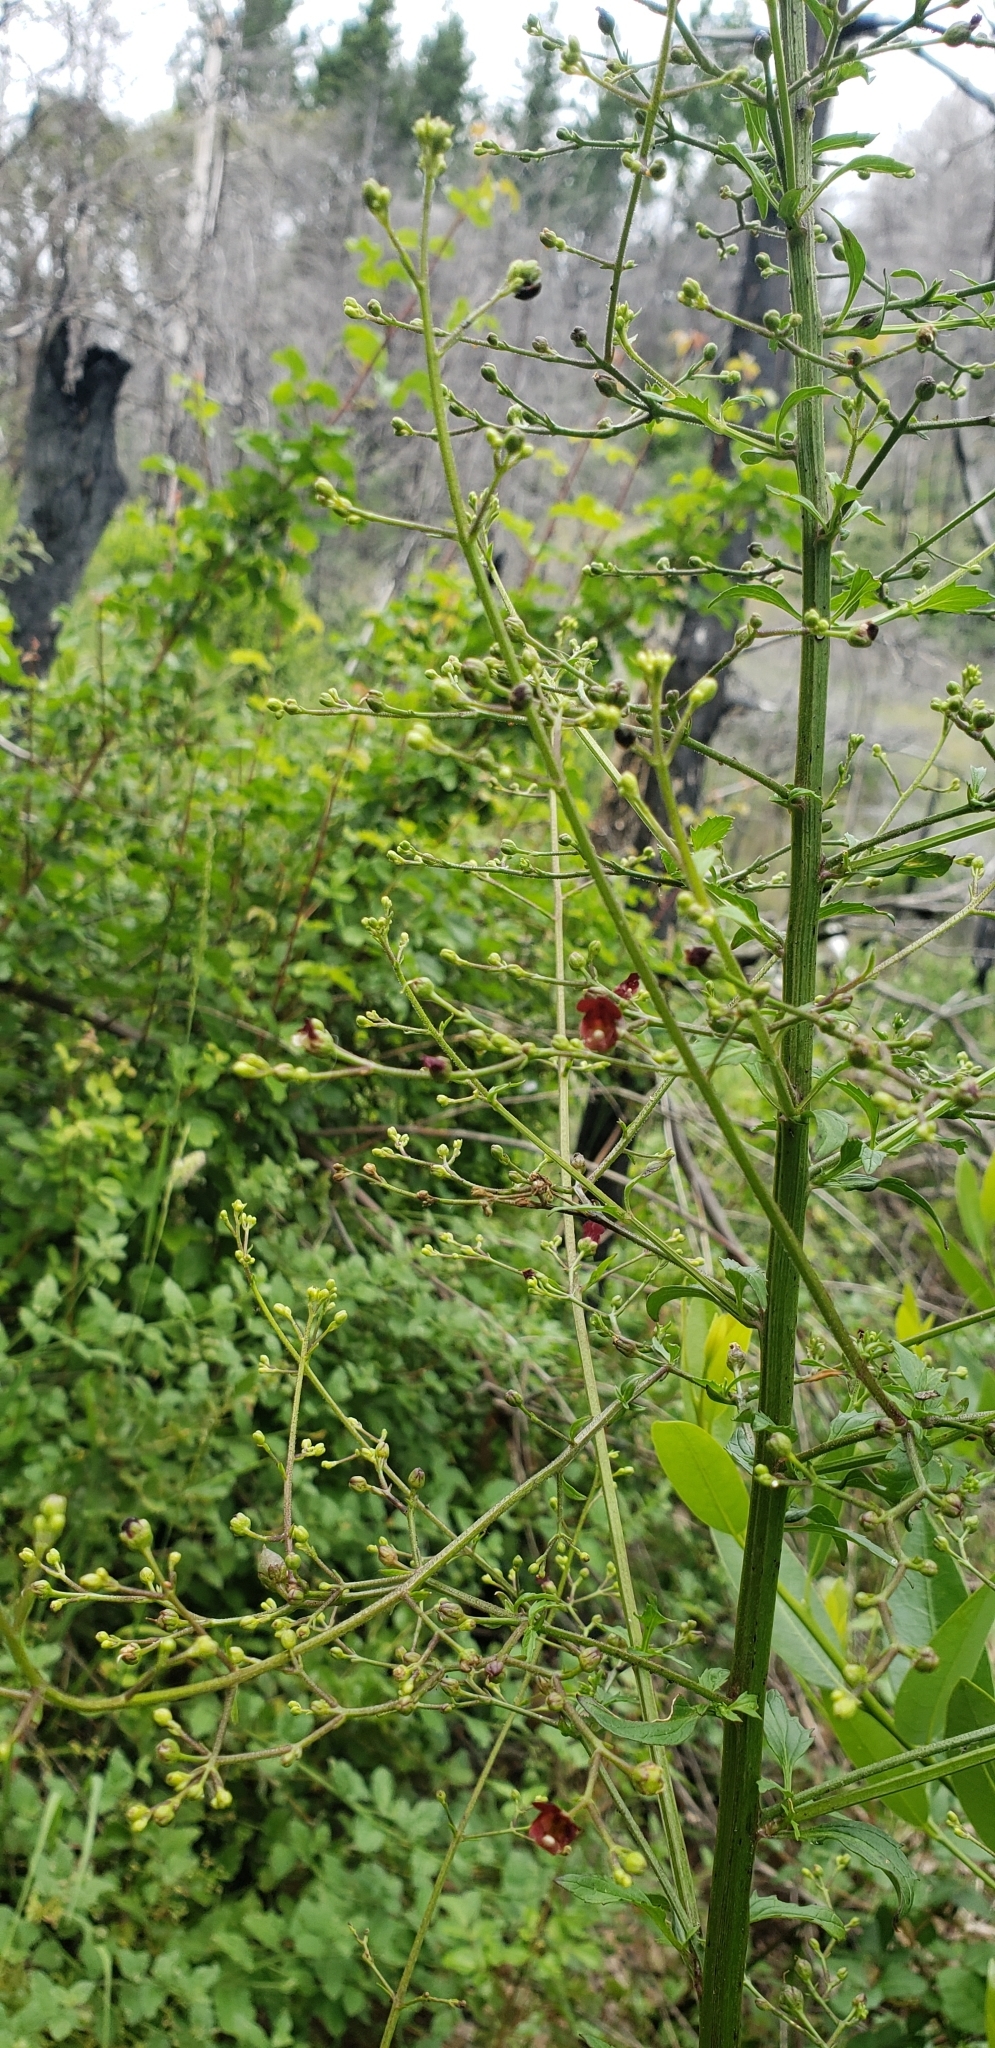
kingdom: Plantae
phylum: Tracheophyta
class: Magnoliopsida
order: Lamiales
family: Scrophulariaceae
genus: Scrophularia
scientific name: Scrophularia californica
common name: California figwort
